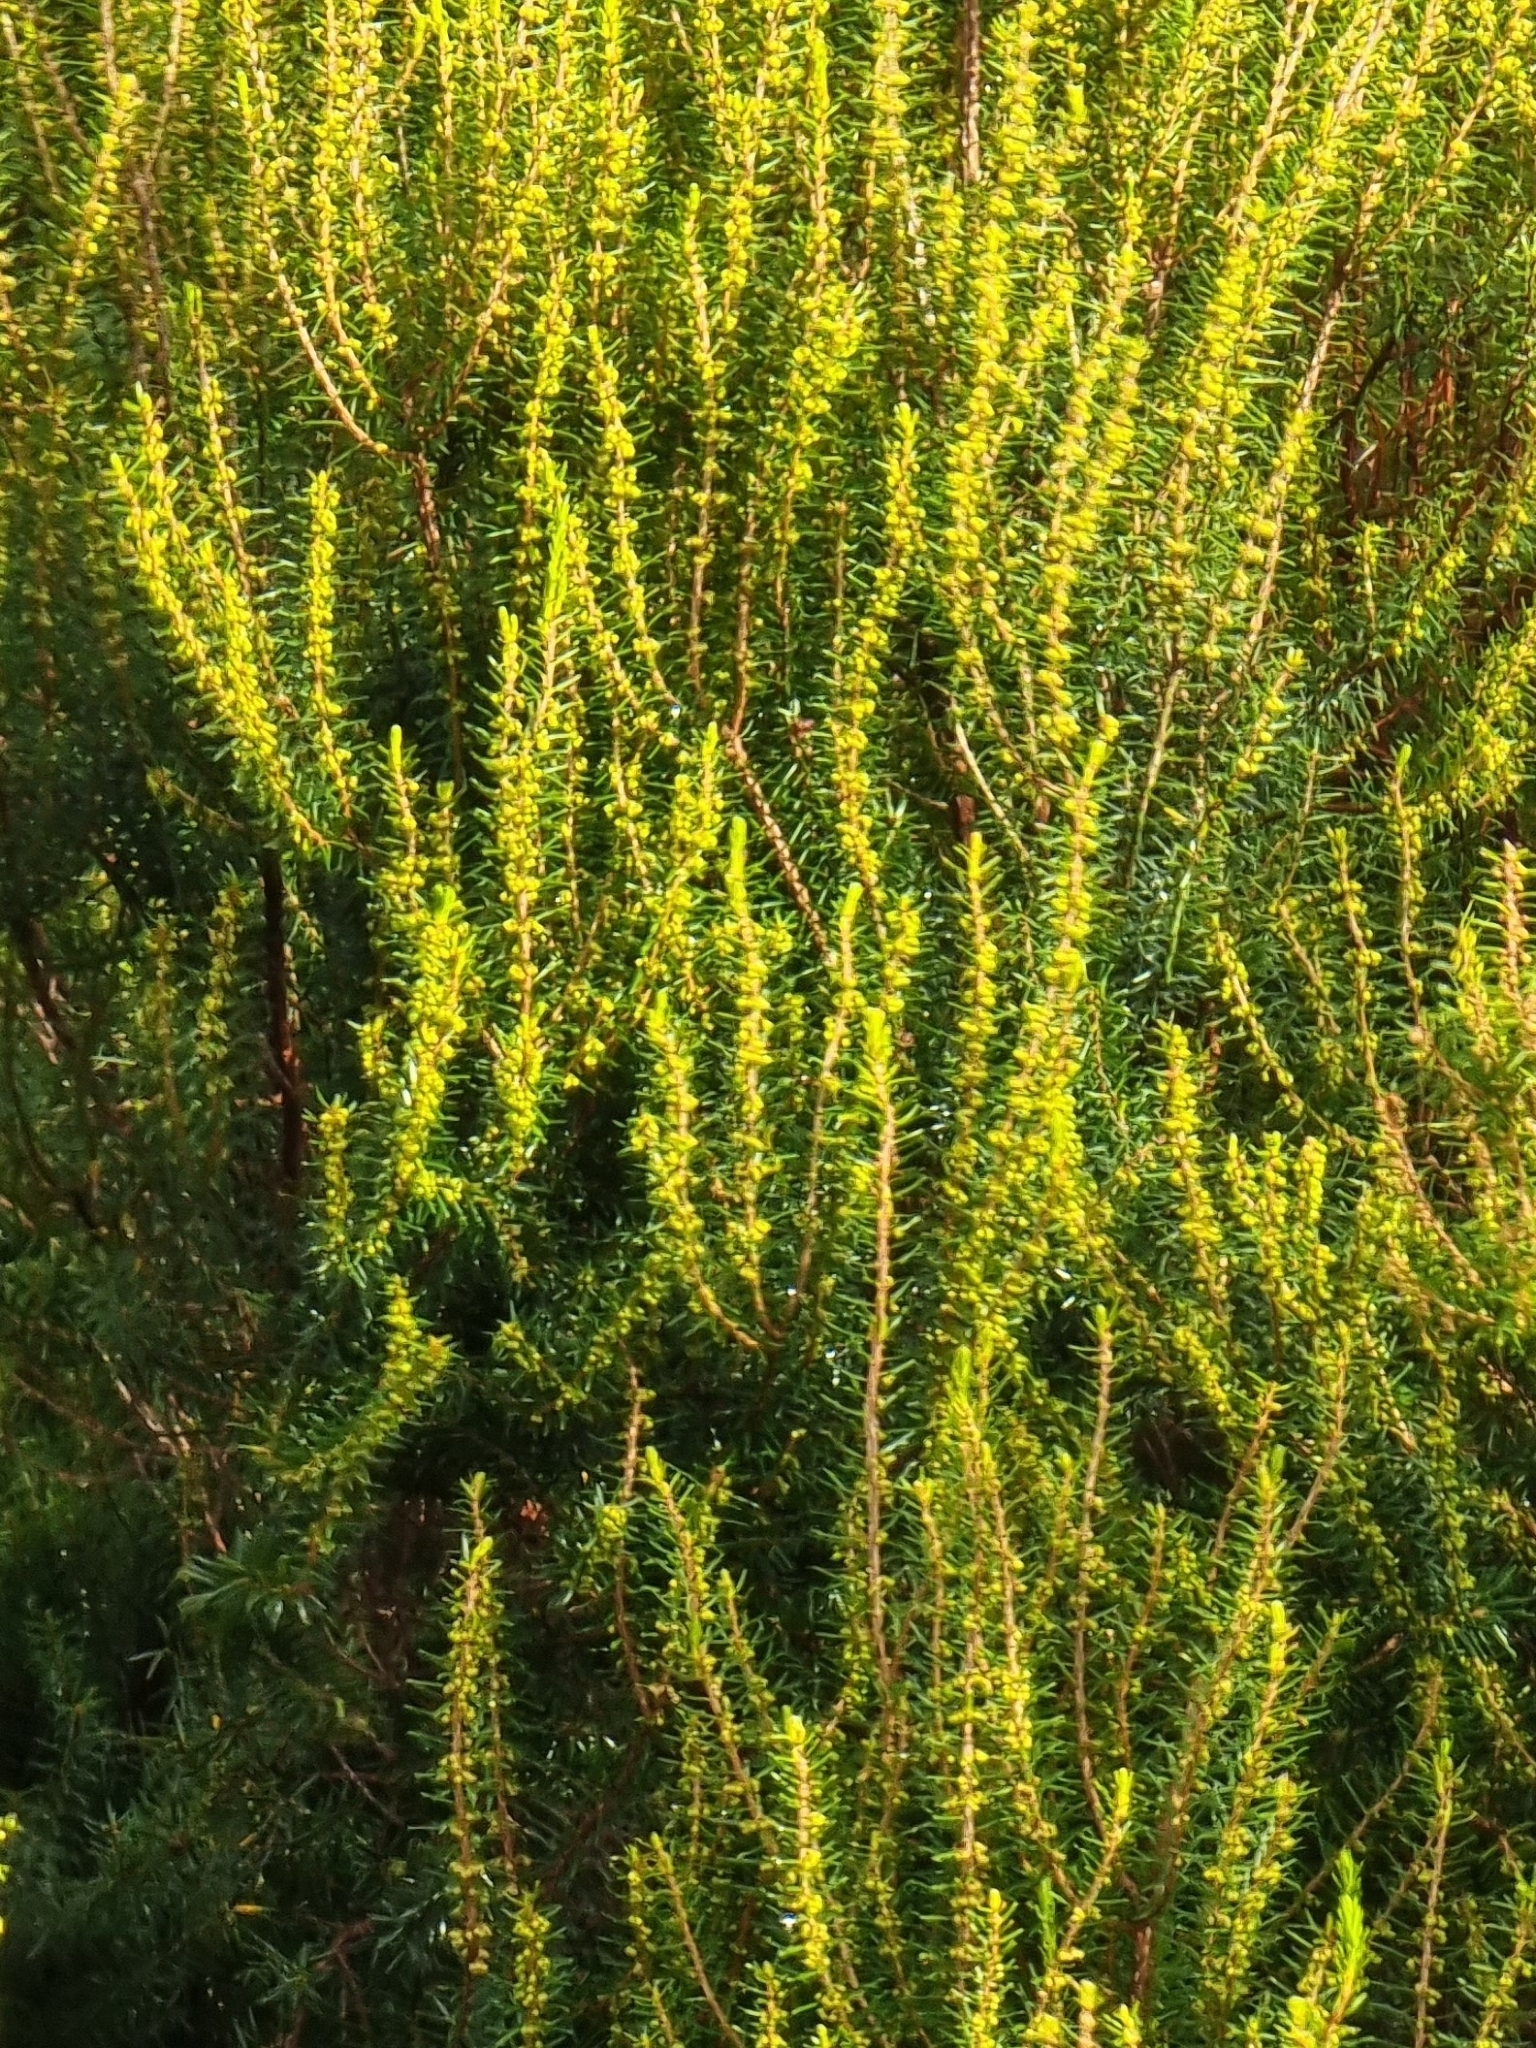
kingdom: Plantae
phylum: Tracheophyta
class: Magnoliopsida
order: Ericales
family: Ericaceae
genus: Erica
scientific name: Erica platycodon
